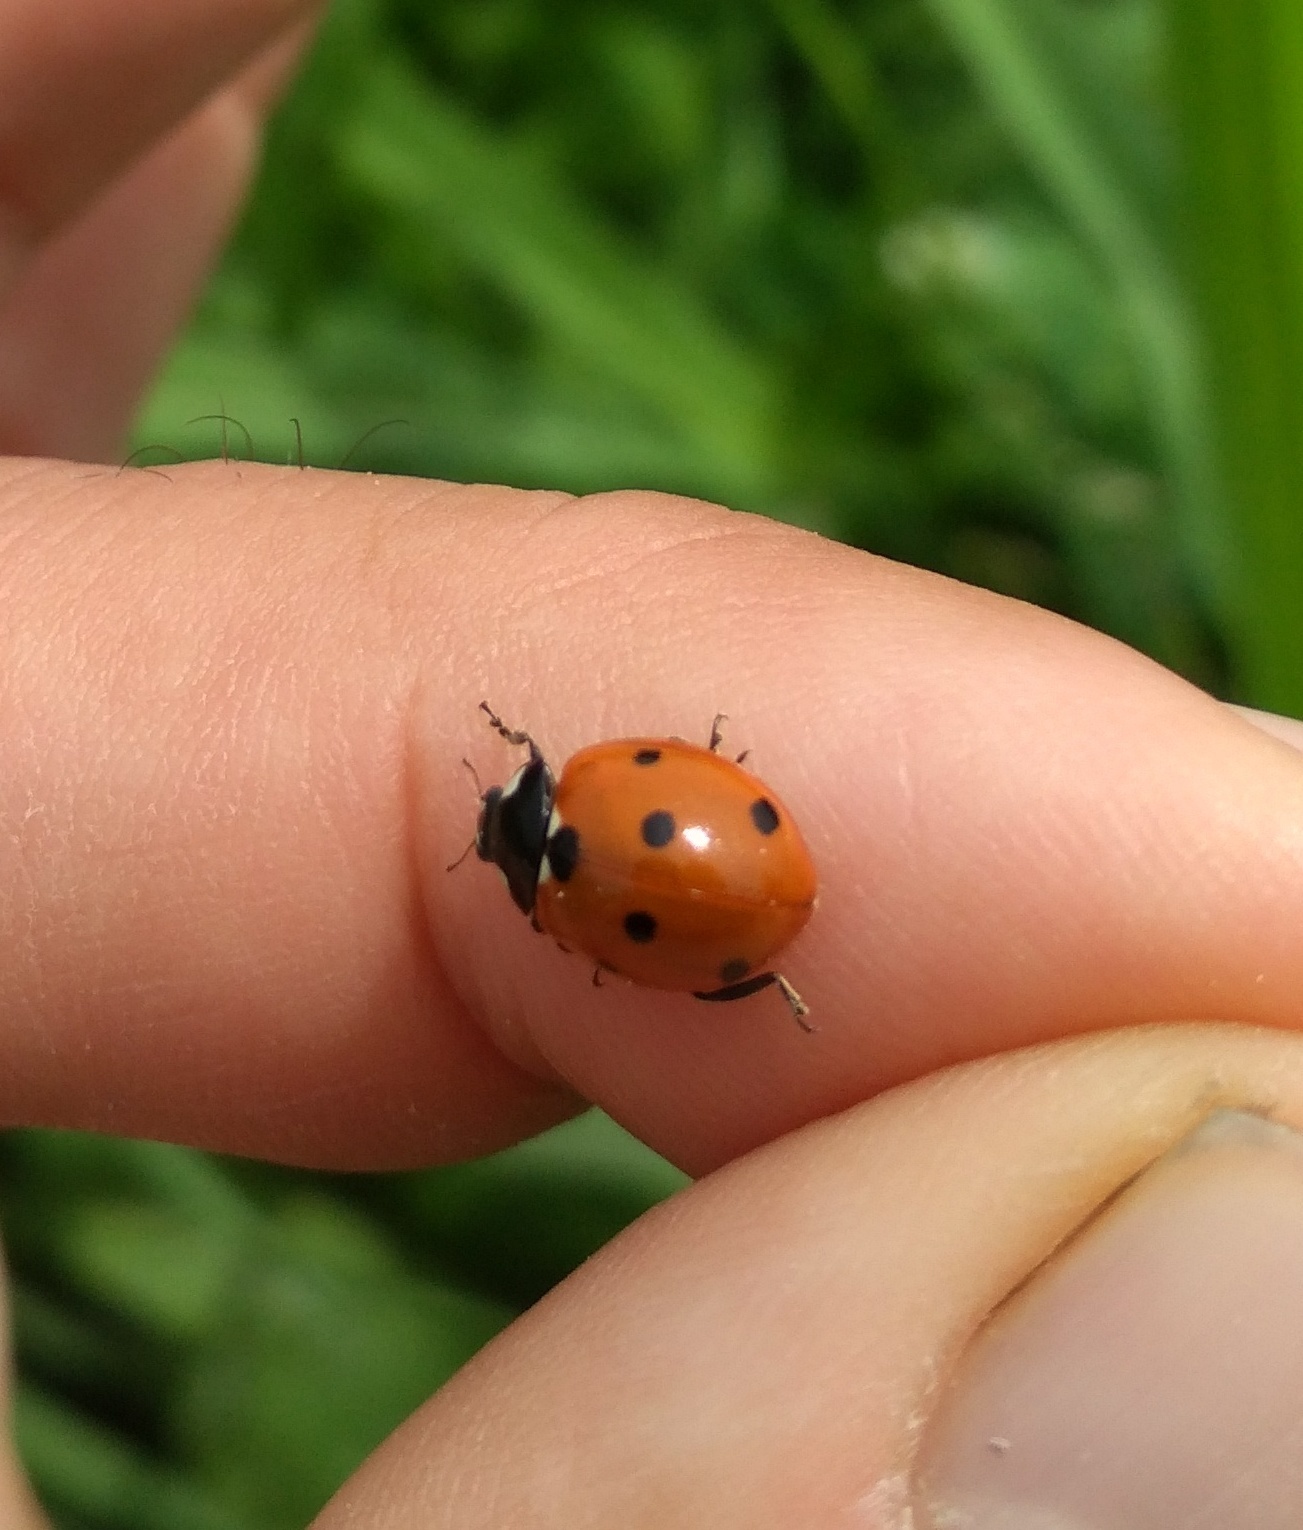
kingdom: Animalia
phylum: Arthropoda
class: Insecta
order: Coleoptera
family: Coccinellidae
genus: Coccinella
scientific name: Coccinella septempunctata
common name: Sevenspotted lady beetle
